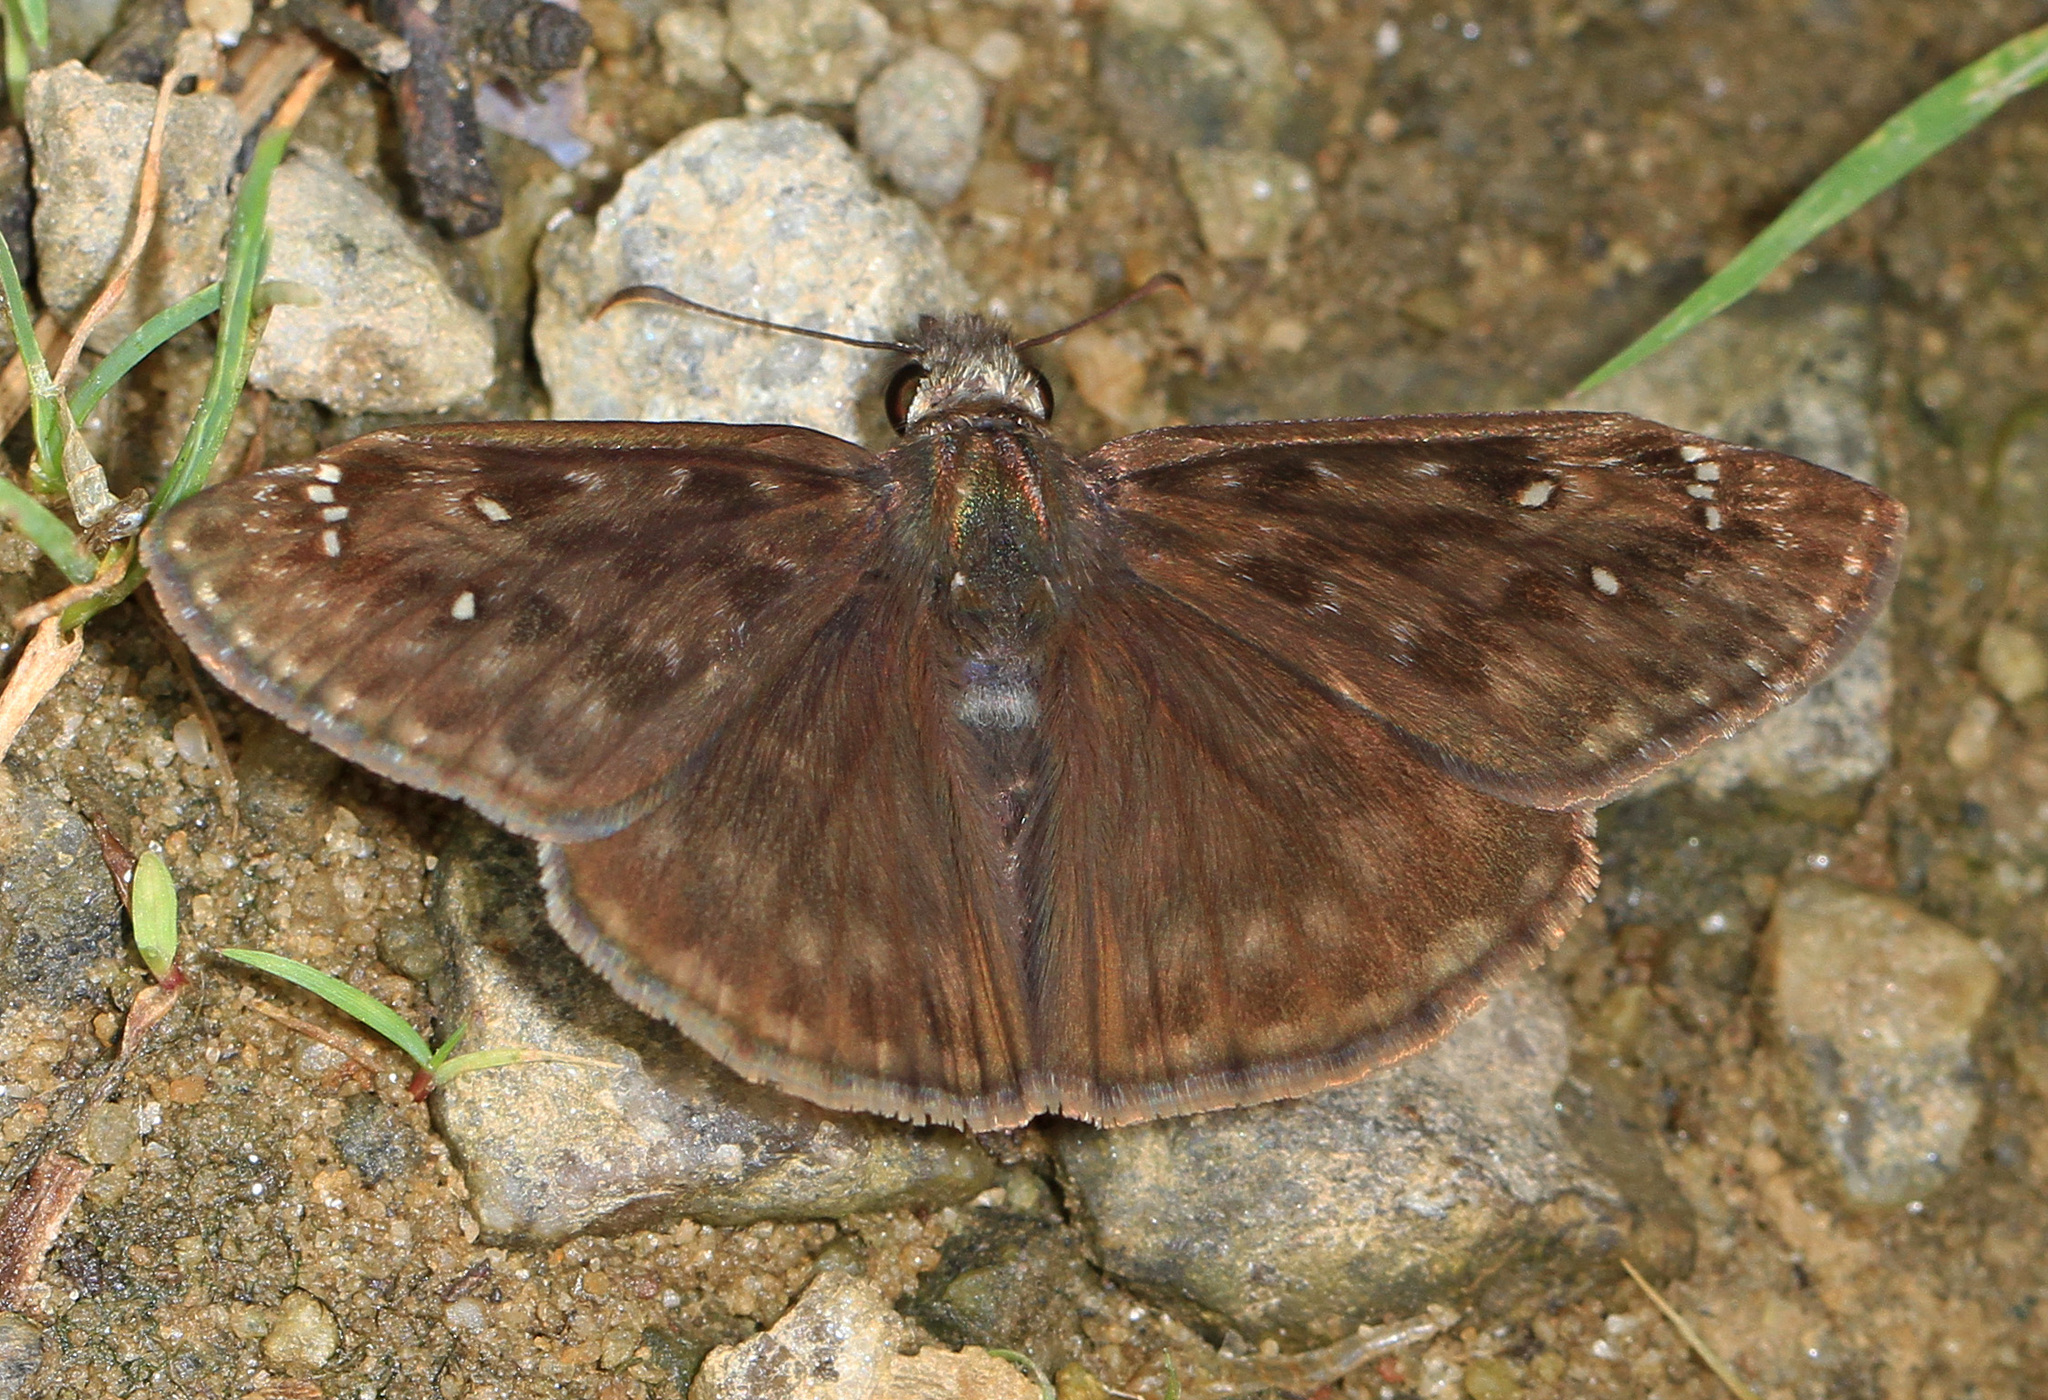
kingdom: Animalia
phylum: Arthropoda
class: Insecta
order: Lepidoptera
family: Hesperiidae
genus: Erynnis
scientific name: Erynnis horatius
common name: Horace's duskywing
